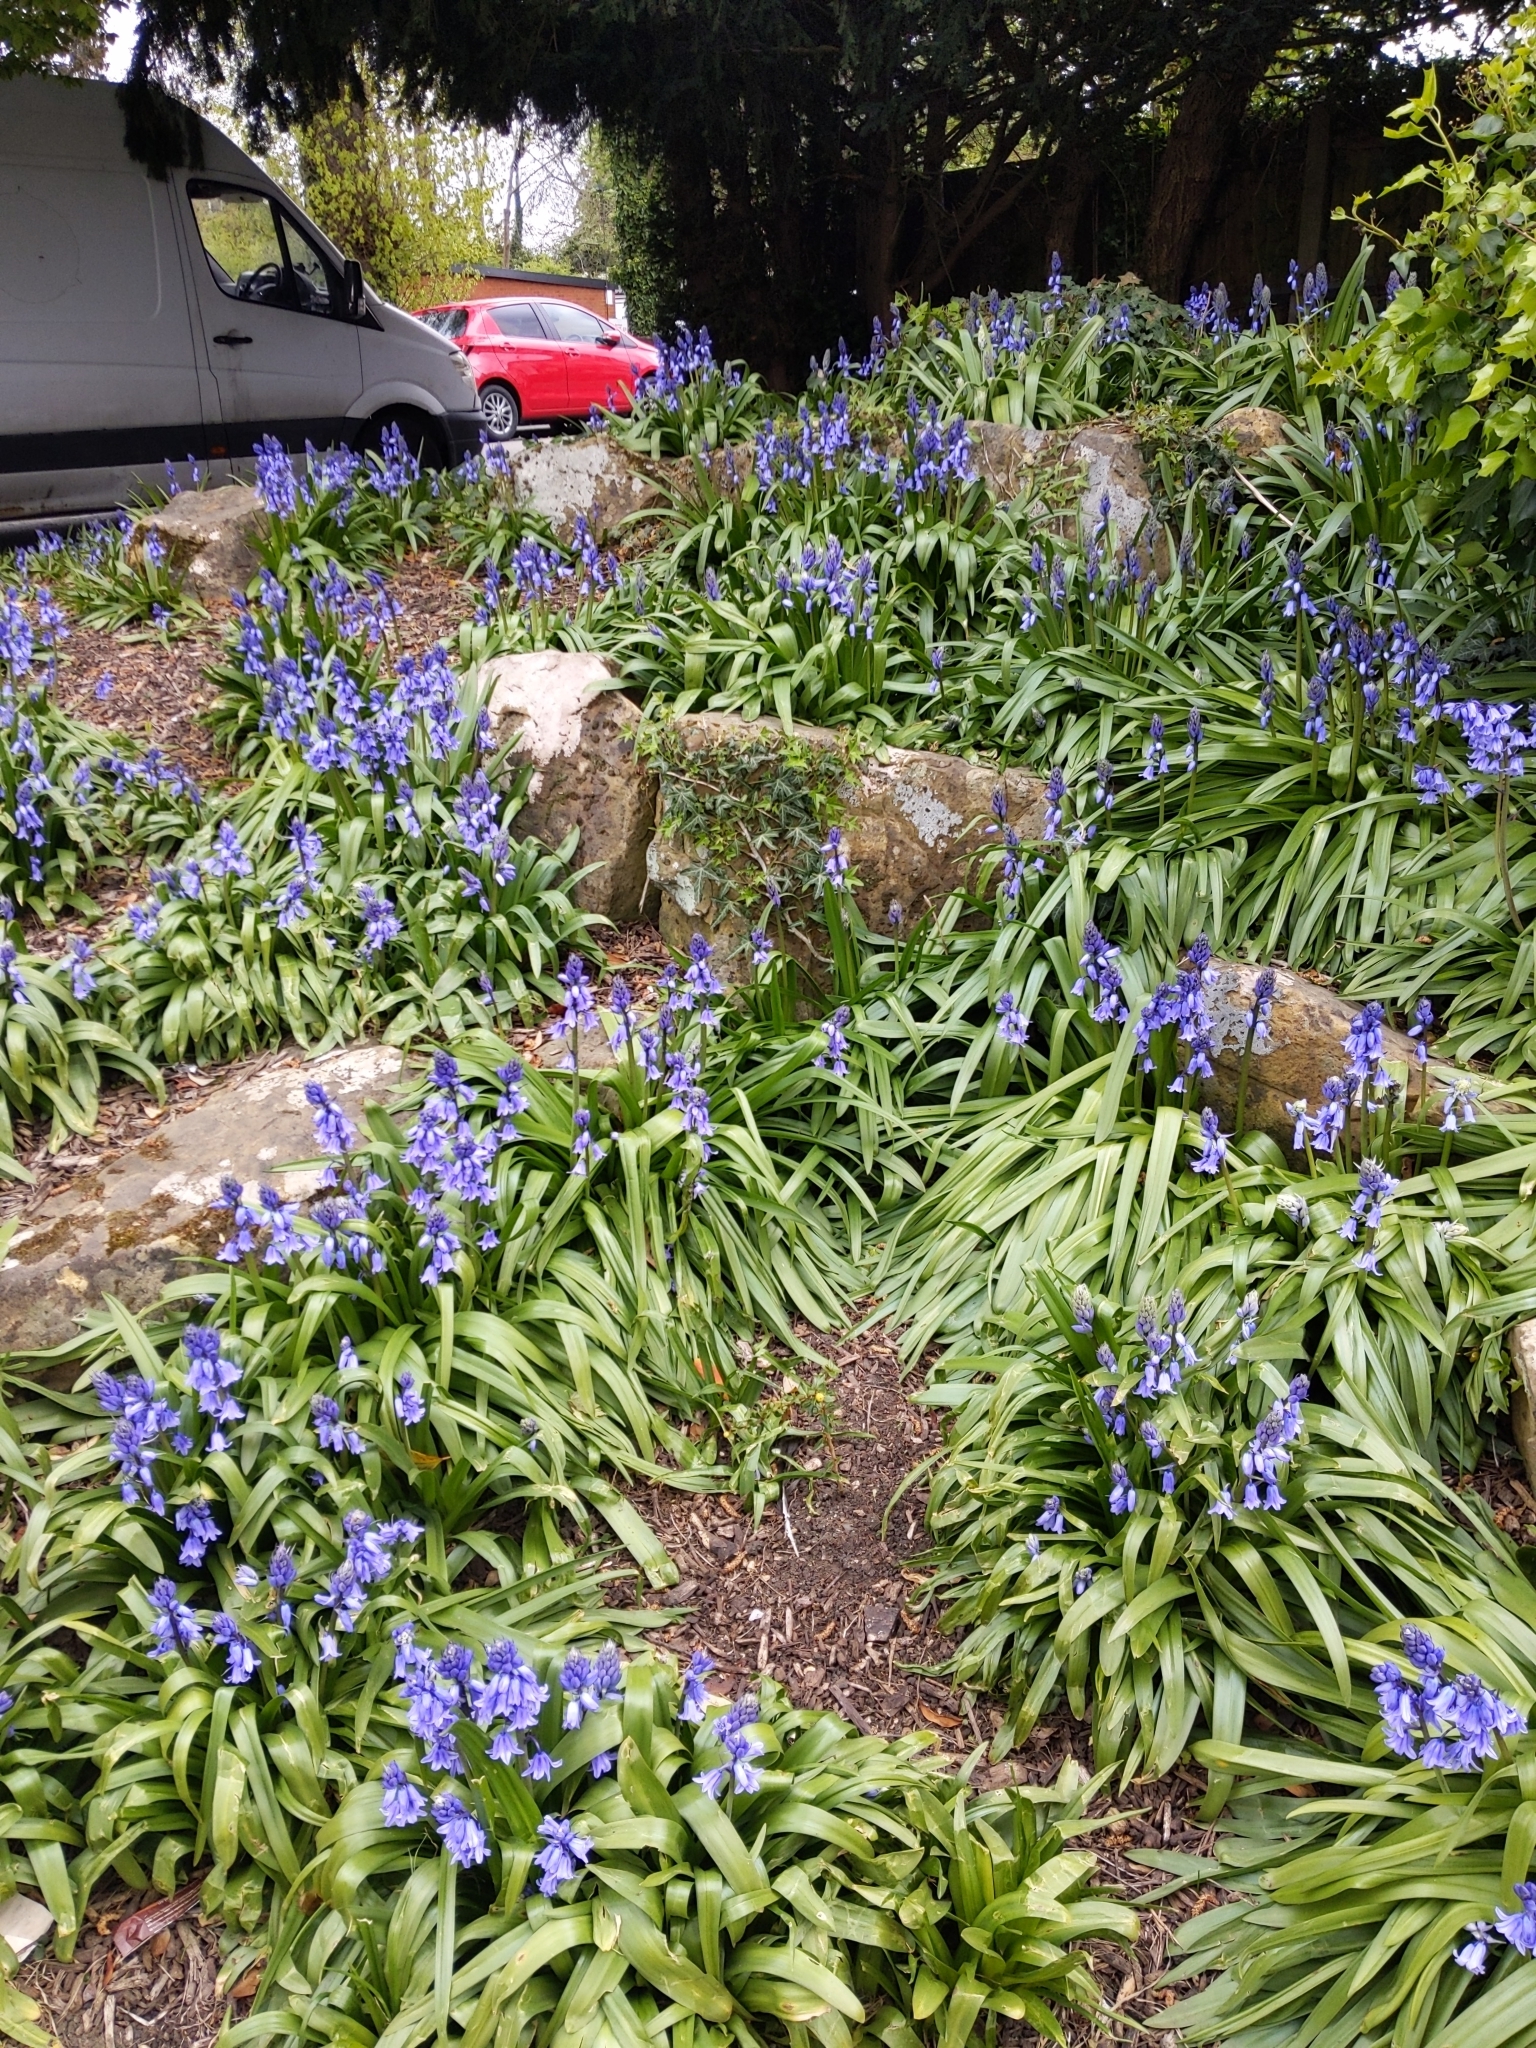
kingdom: Plantae
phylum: Tracheophyta
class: Liliopsida
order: Asparagales
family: Asparagaceae
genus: Hyacinthoides
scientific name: Hyacinthoides massartiana
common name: Hyacinthoides
